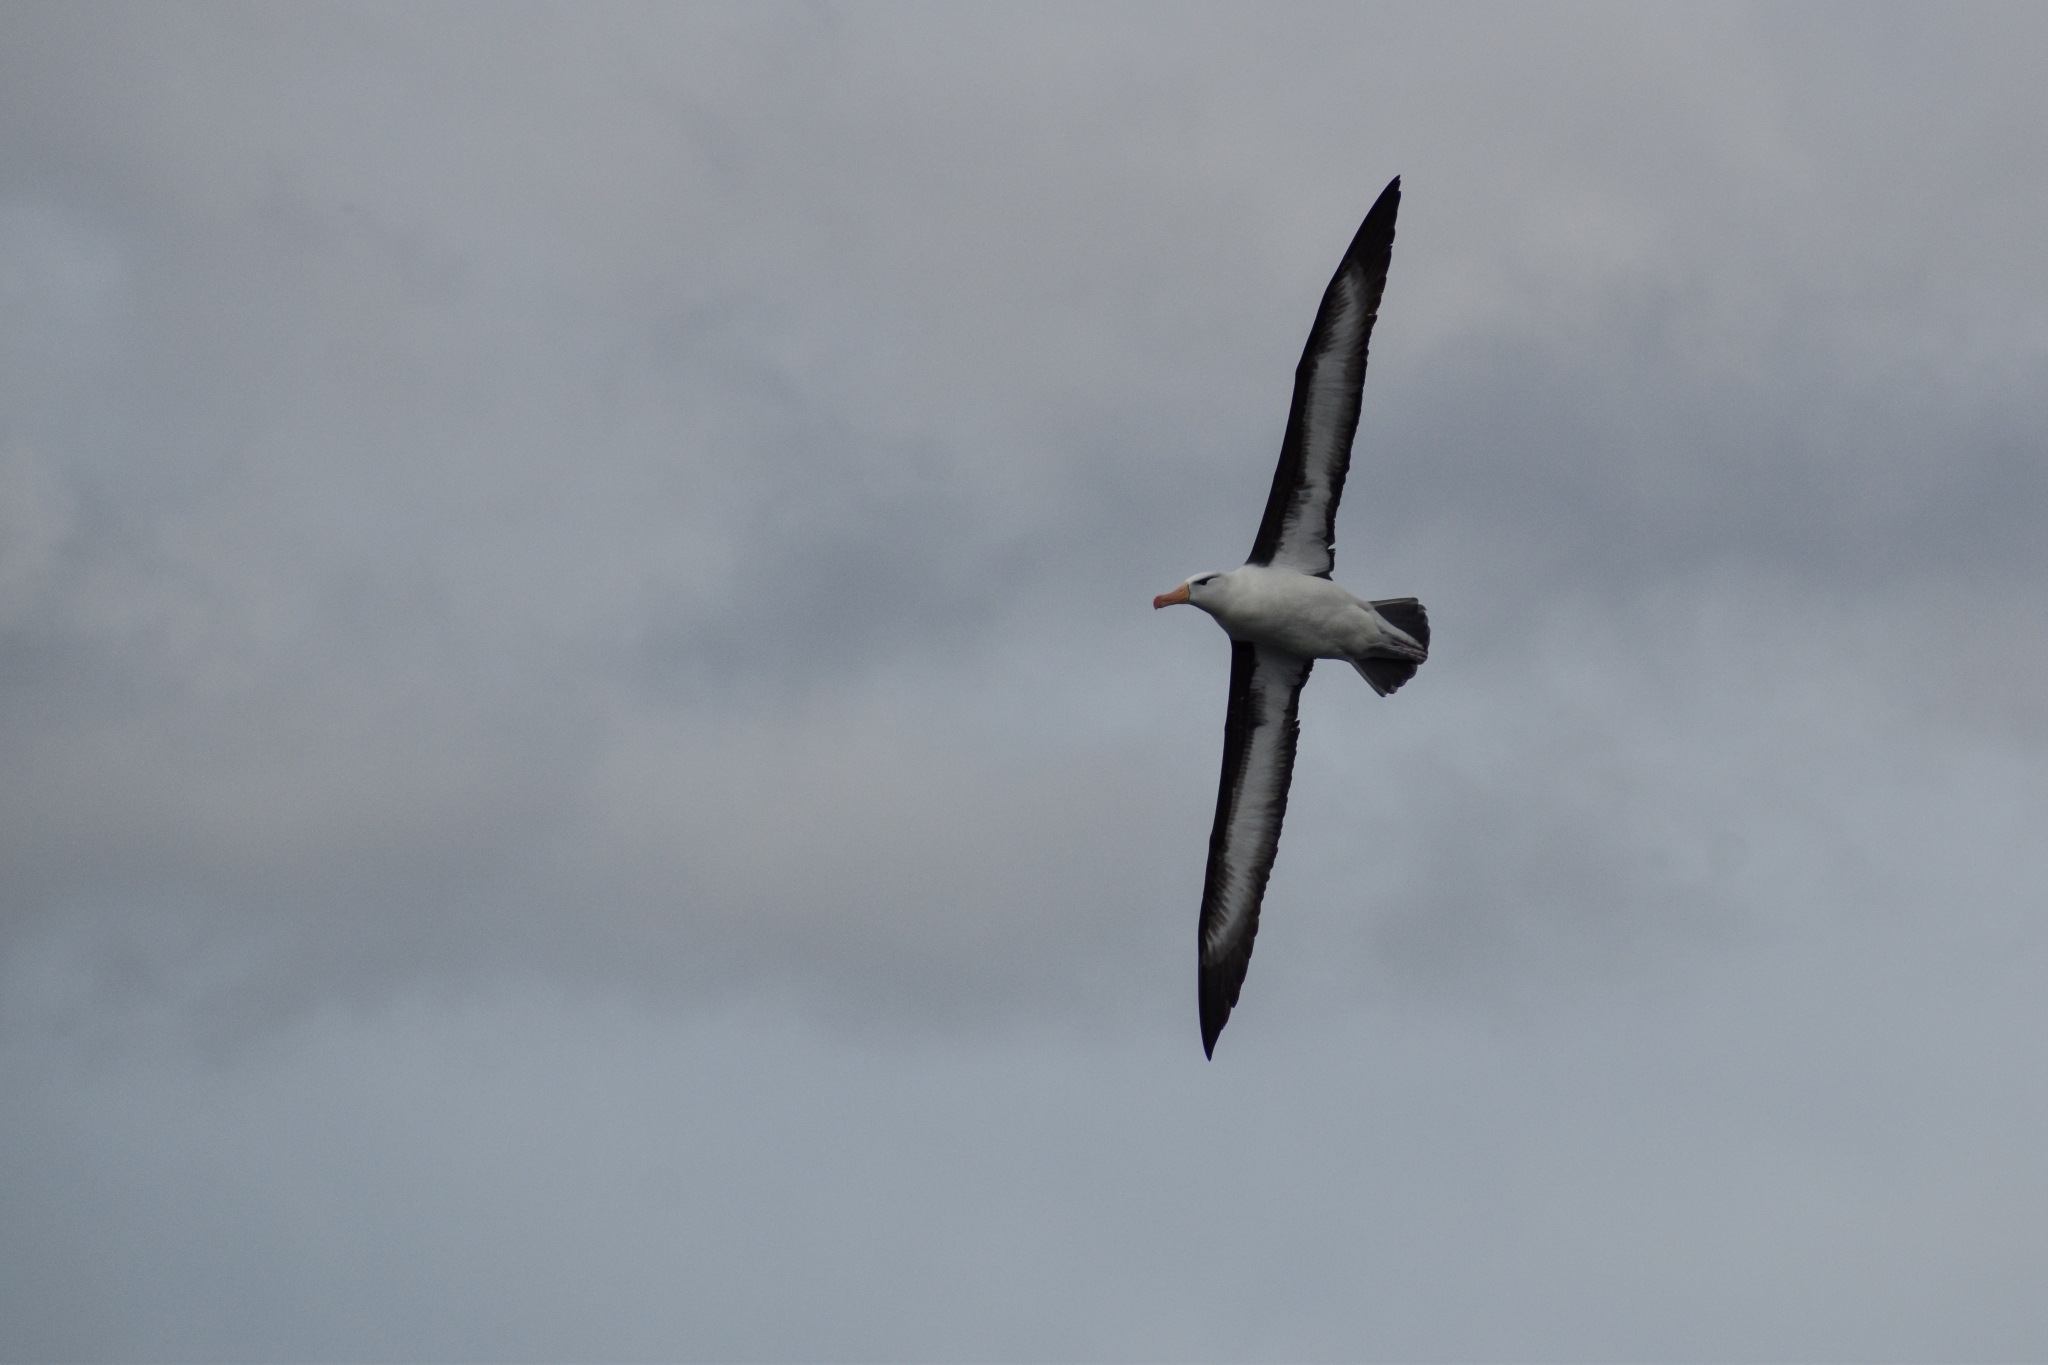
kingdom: Animalia
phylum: Chordata
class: Aves
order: Procellariiformes
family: Diomedeidae
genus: Thalassarche
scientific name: Thalassarche melanophris
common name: Black-browed albatross
